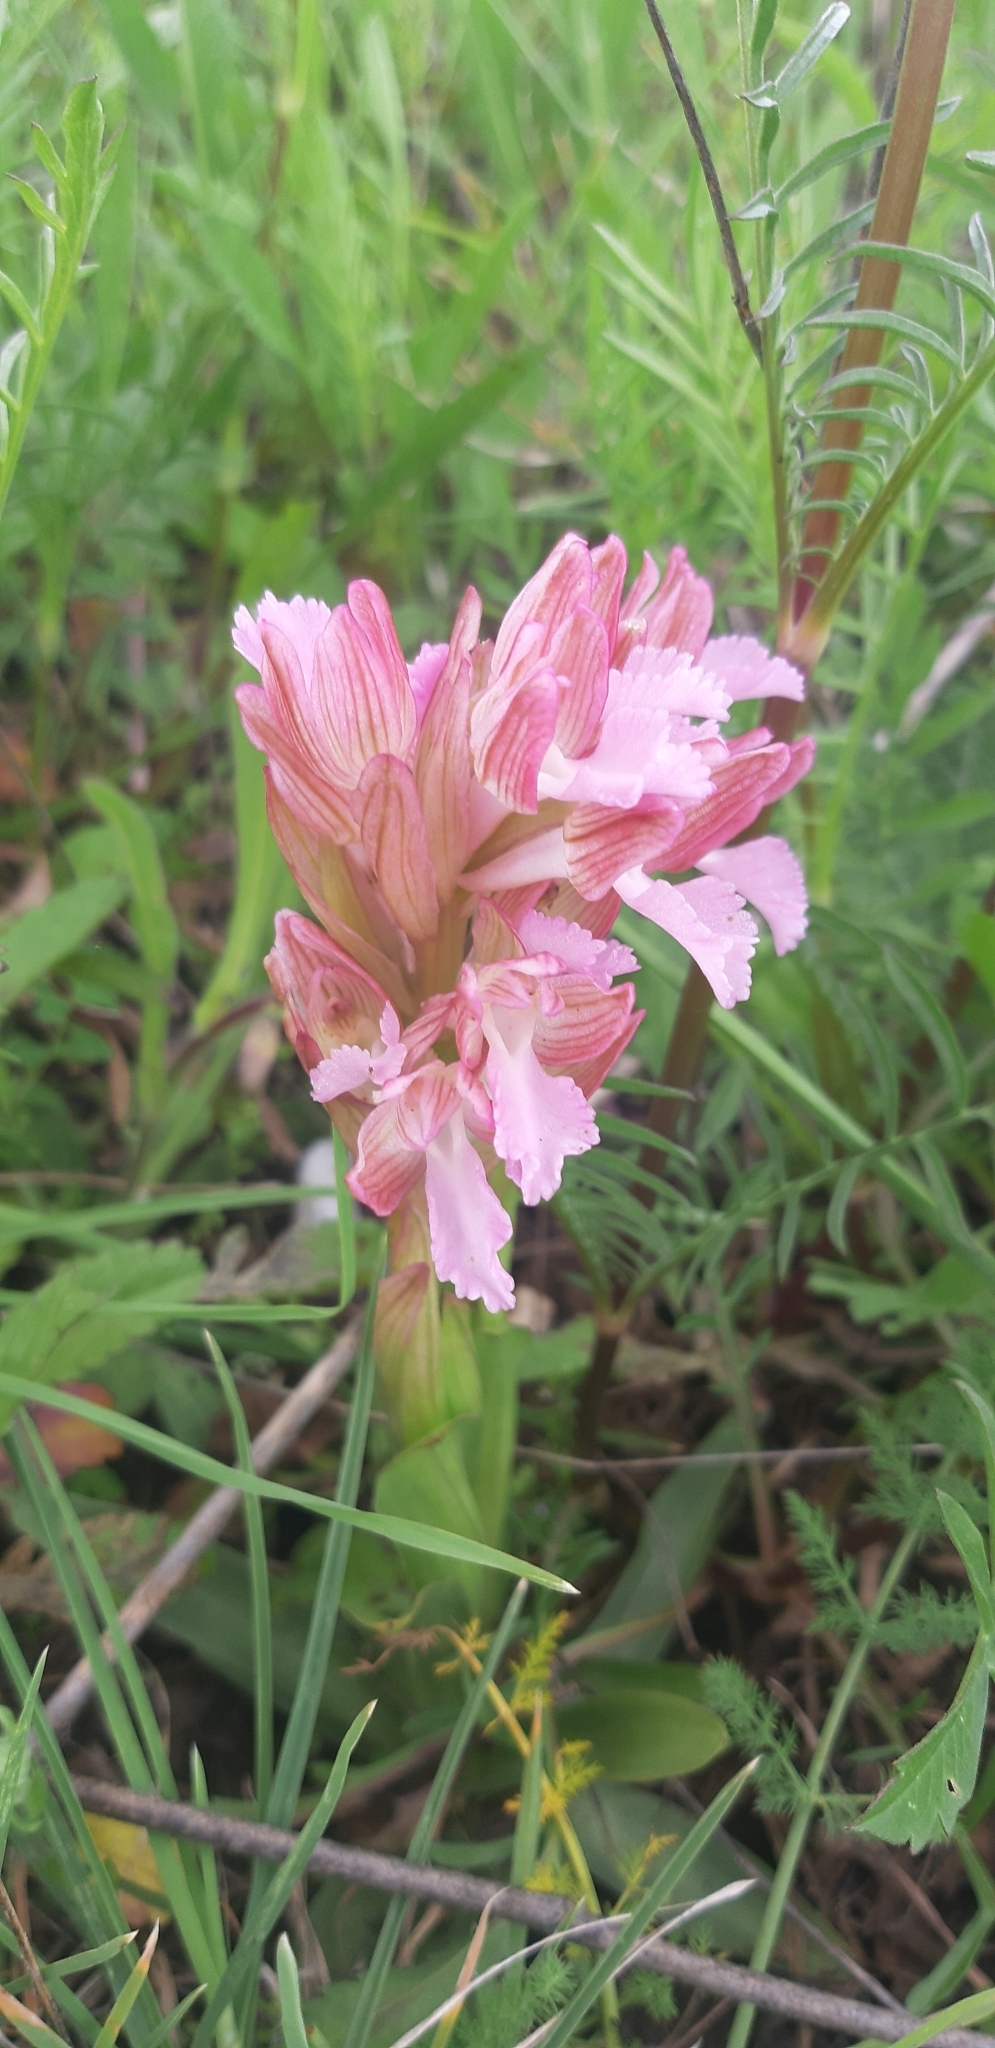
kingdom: Plantae
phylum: Tracheophyta
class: Liliopsida
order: Asparagales
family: Orchidaceae
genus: Anacamptis
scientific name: Anacamptis papilionacea
